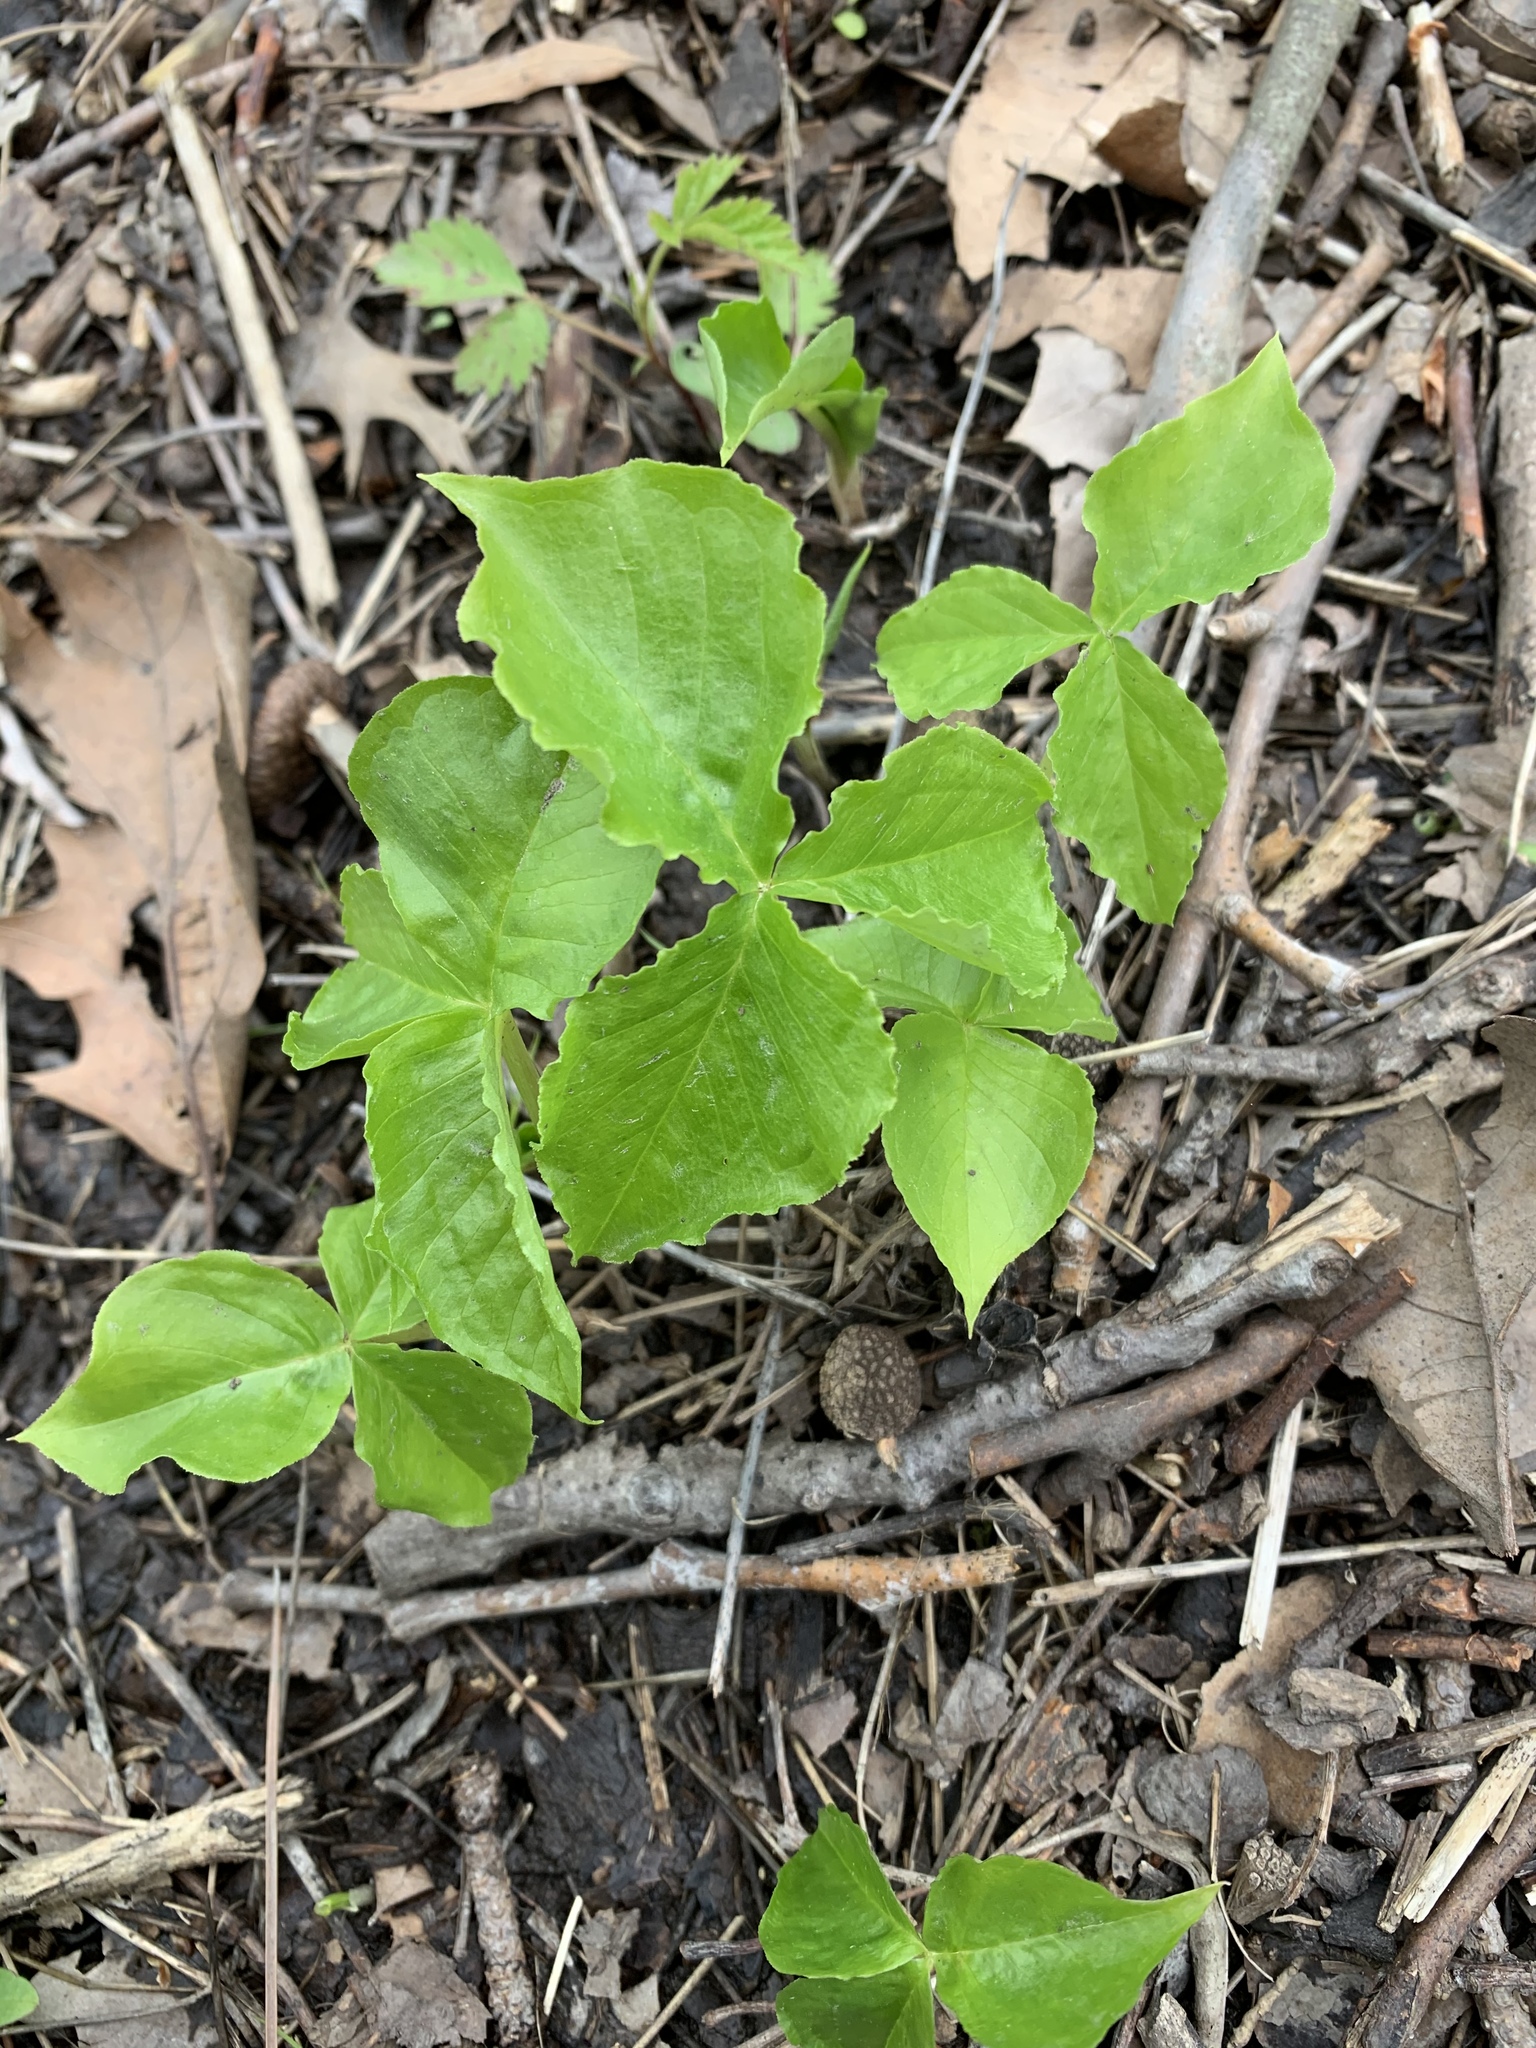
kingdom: Plantae
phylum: Tracheophyta
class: Liliopsida
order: Alismatales
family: Araceae
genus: Arisaema
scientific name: Arisaema triphyllum
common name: Jack-in-the-pulpit
